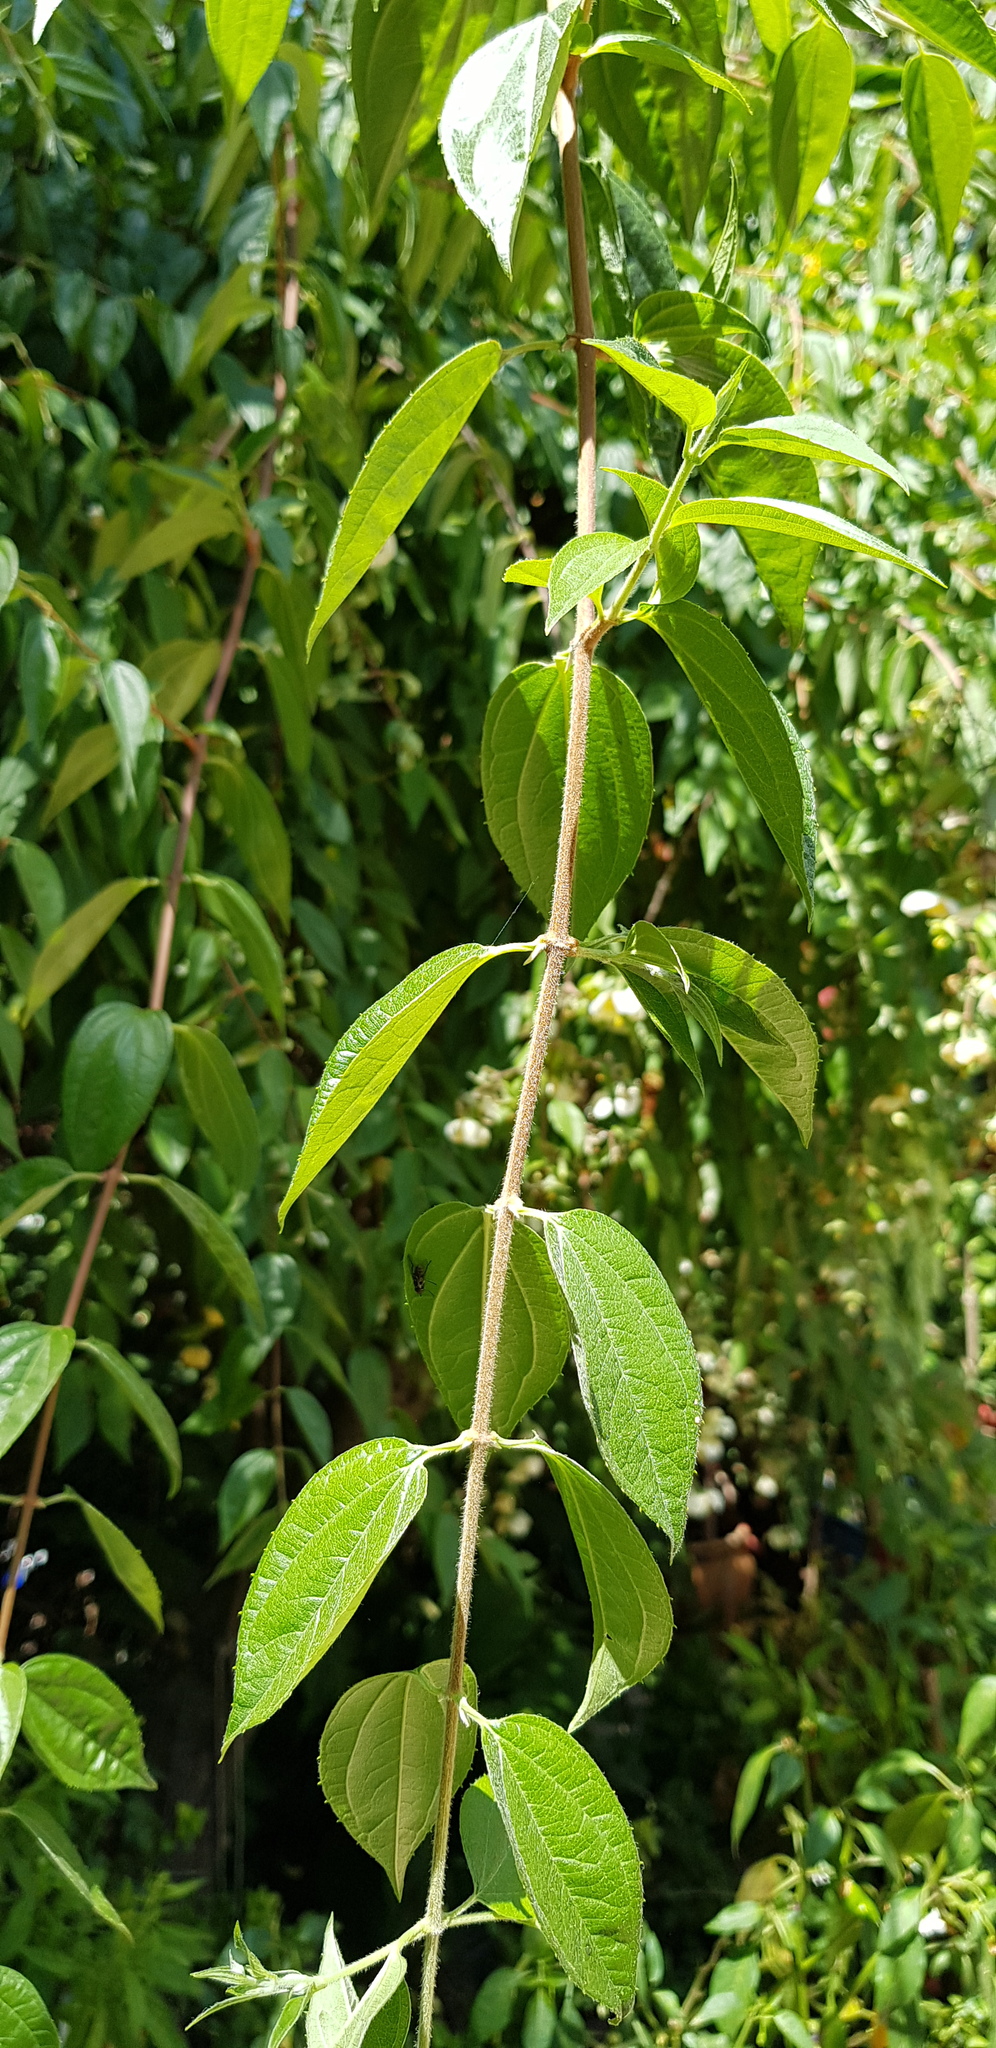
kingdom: Plantae
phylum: Tracheophyta
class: Magnoliopsida
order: Cornales
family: Hydrangeaceae
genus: Philadelphus
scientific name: Philadelphus mexicanus
